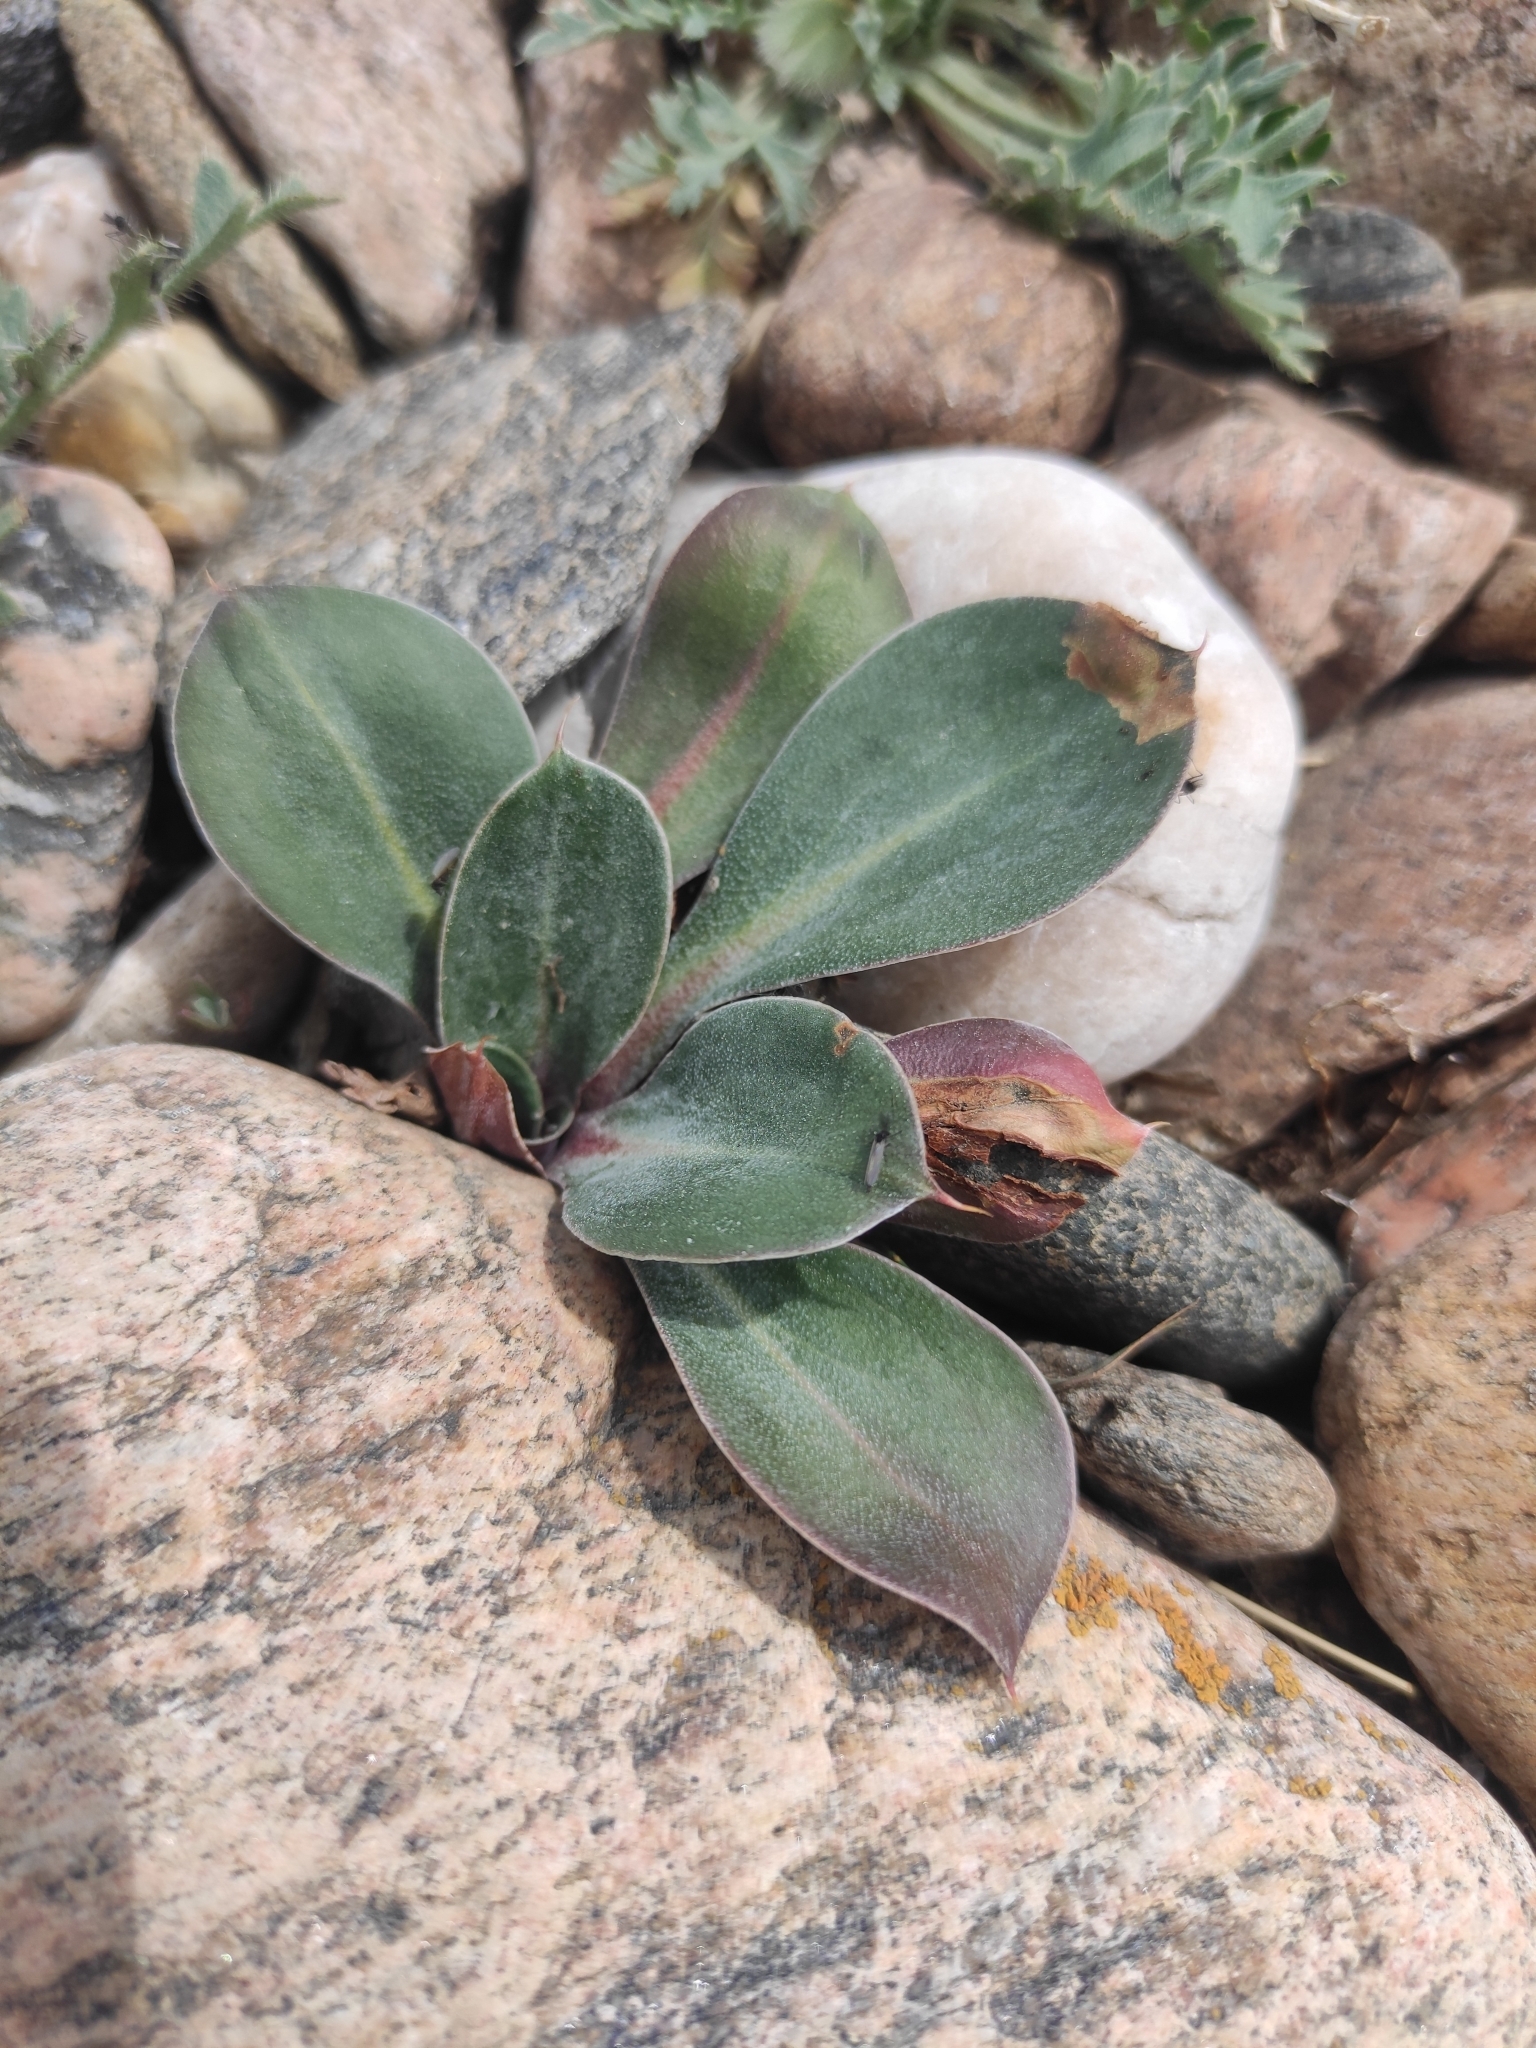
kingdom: Plantae
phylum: Tracheophyta
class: Magnoliopsida
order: Caryophyllales
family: Plumbaginaceae
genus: Goniolimon
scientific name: Goniolimon speciosum
